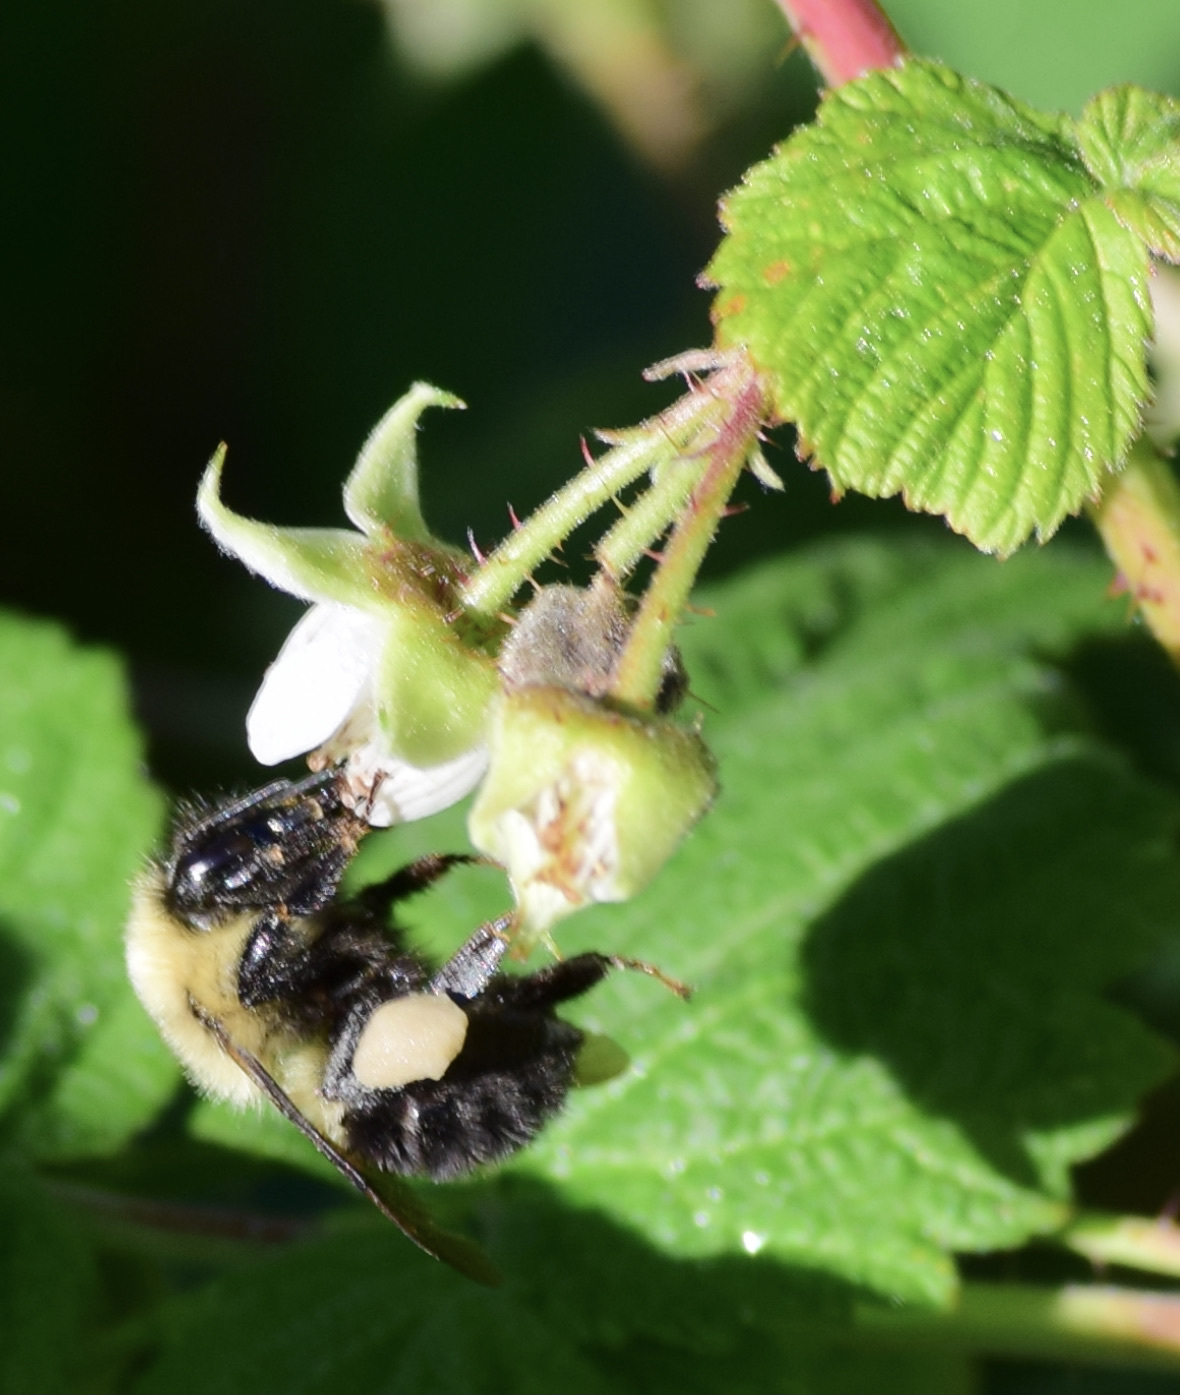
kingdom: Animalia
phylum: Arthropoda
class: Insecta
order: Hymenoptera
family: Apidae
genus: Bombus
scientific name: Bombus bimaculatus
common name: Two-spotted bumble bee
